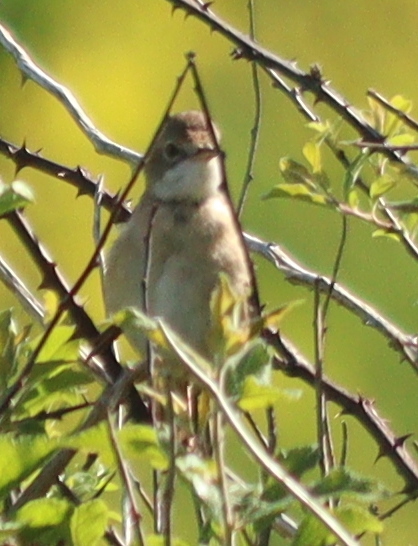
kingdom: Animalia
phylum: Chordata
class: Aves
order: Passeriformes
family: Sylviidae
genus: Sylvia
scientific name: Sylvia communis
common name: Common whitethroat
